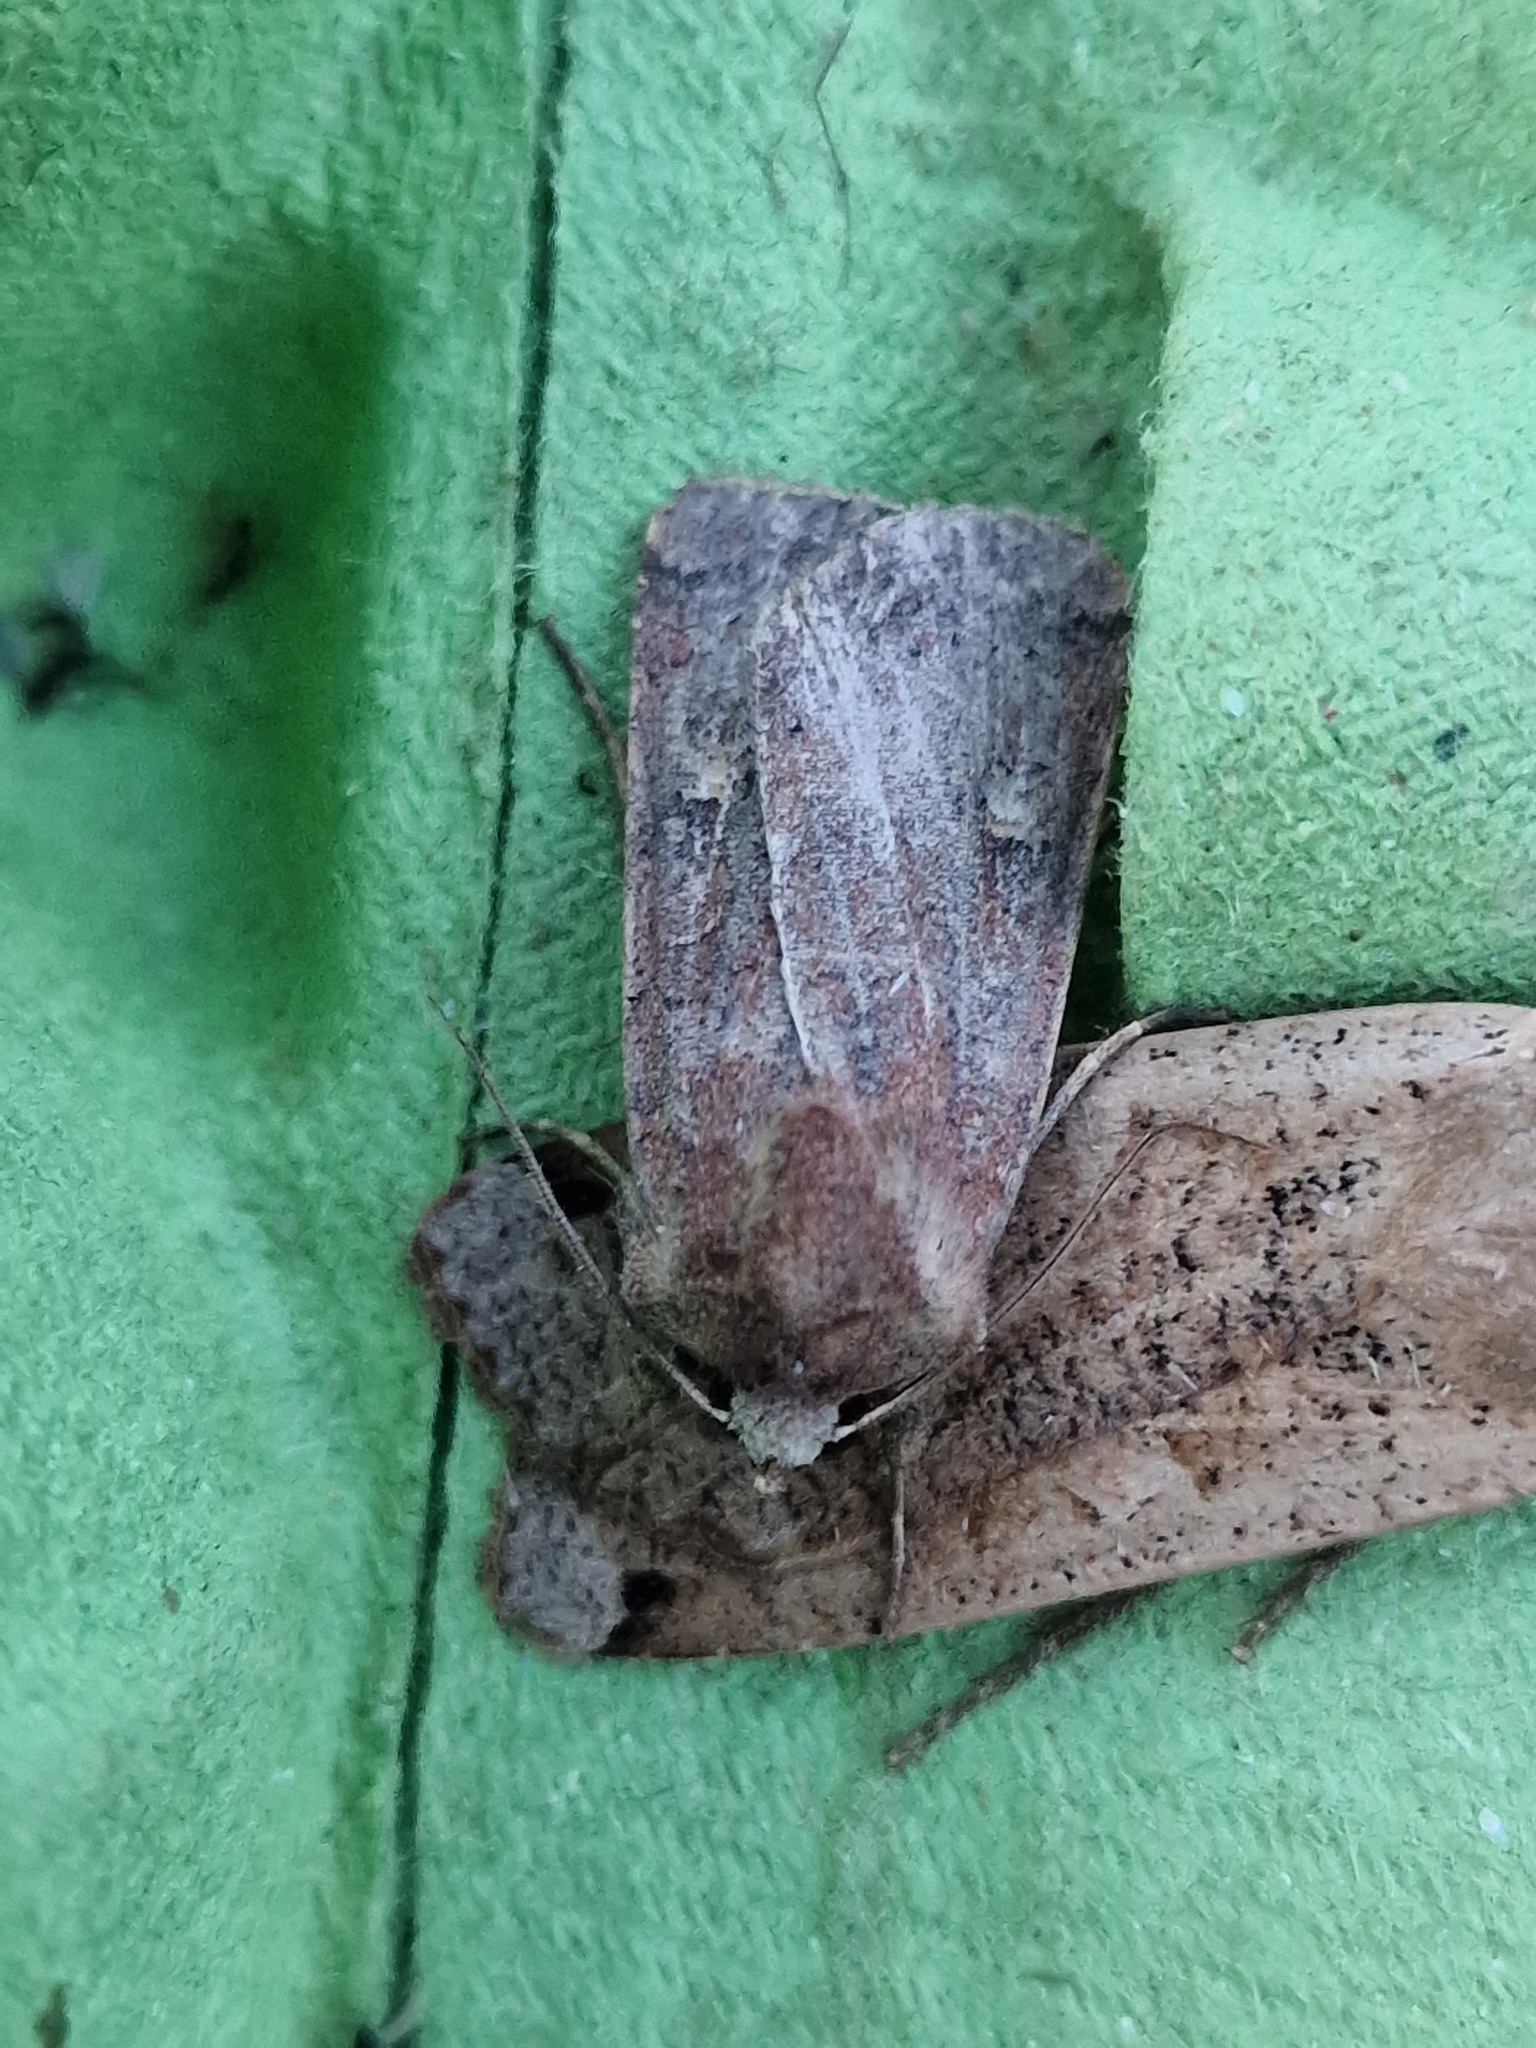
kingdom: Animalia
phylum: Arthropoda
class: Insecta
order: Lepidoptera
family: Noctuidae
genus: Xestia
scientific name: Xestia xanthographa
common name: Square-spot rustic
